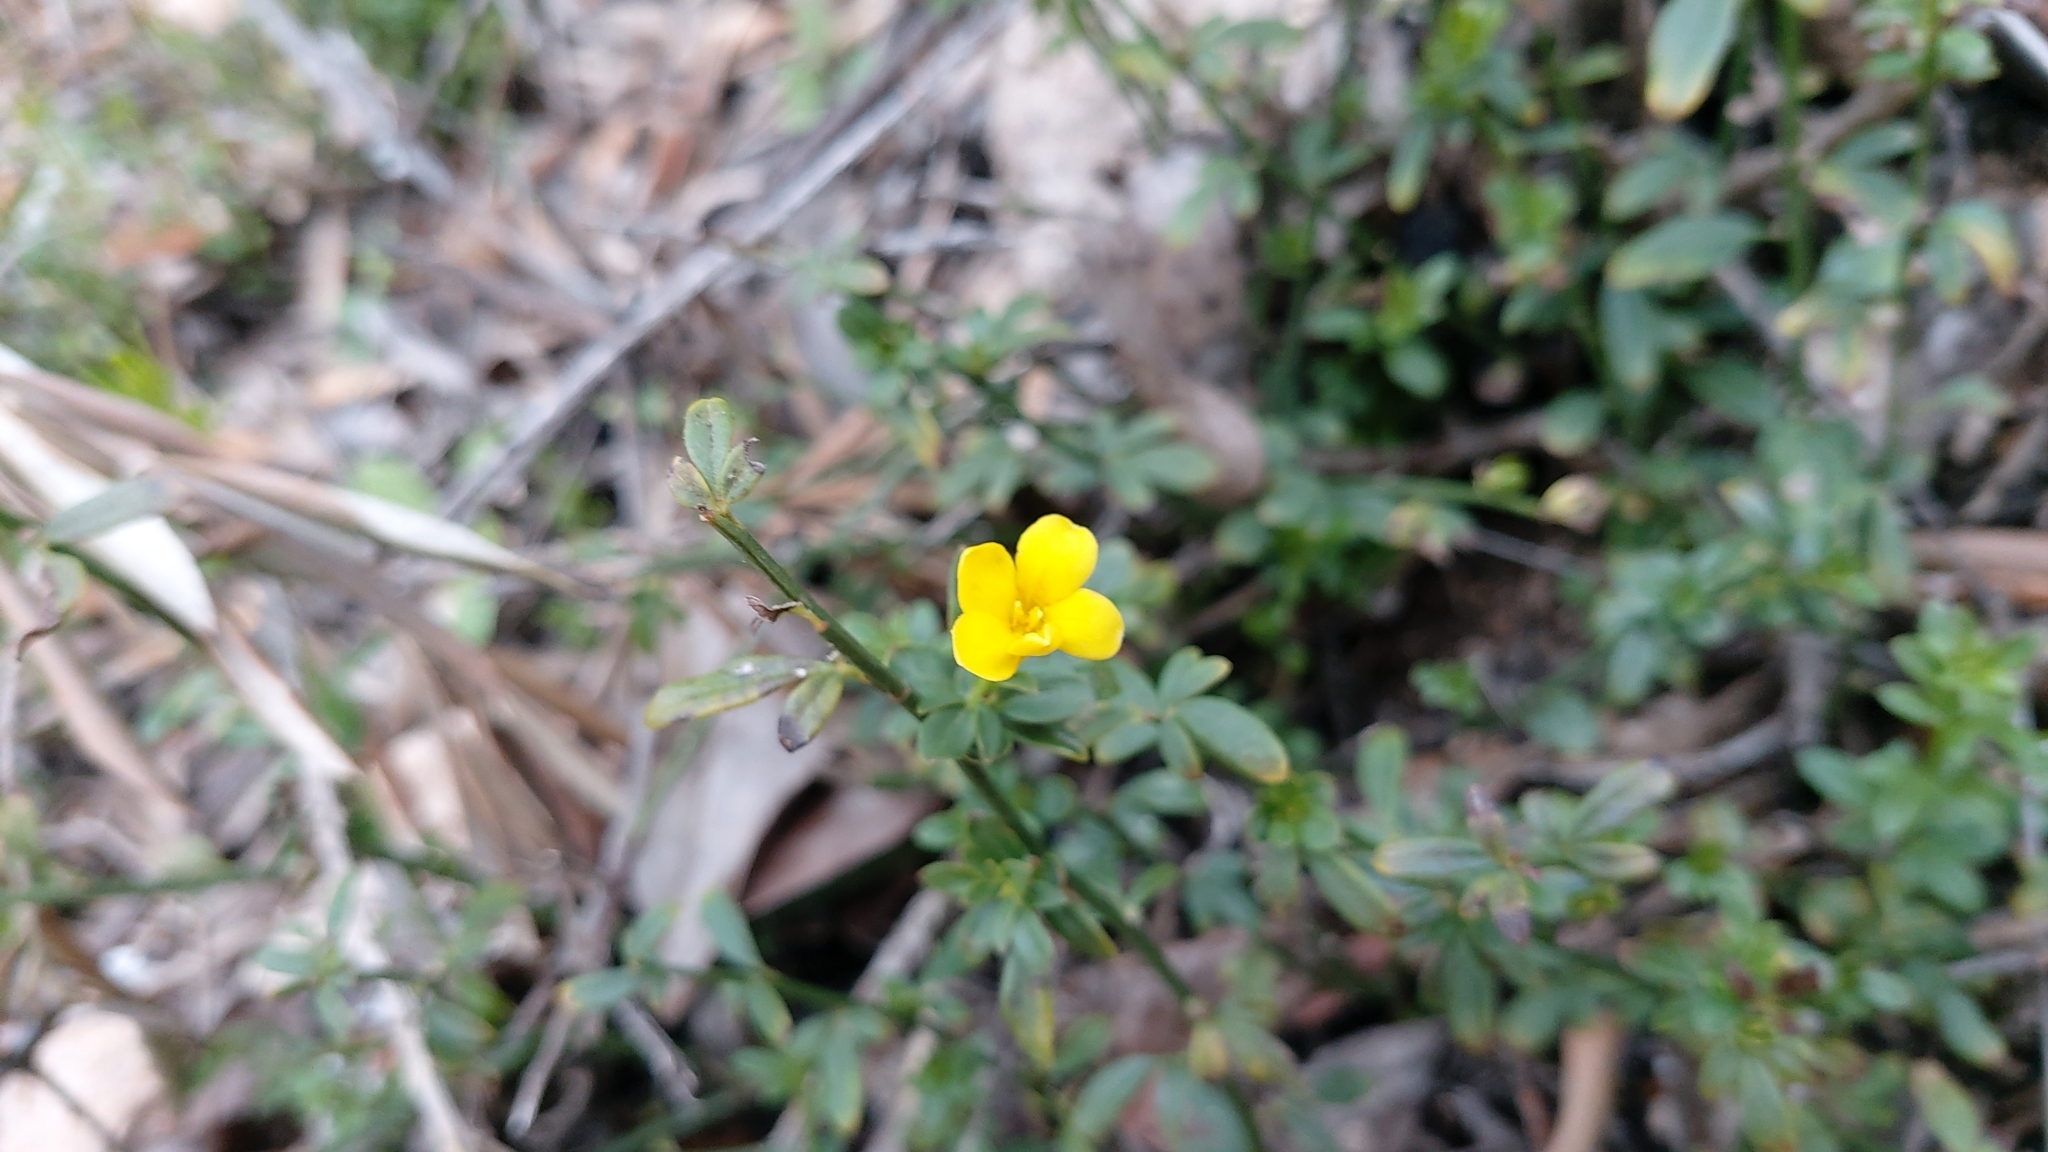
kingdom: Plantae
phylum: Tracheophyta
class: Magnoliopsida
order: Lamiales
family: Oleaceae
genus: Chrysojasminum
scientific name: Chrysojasminum fruticans
